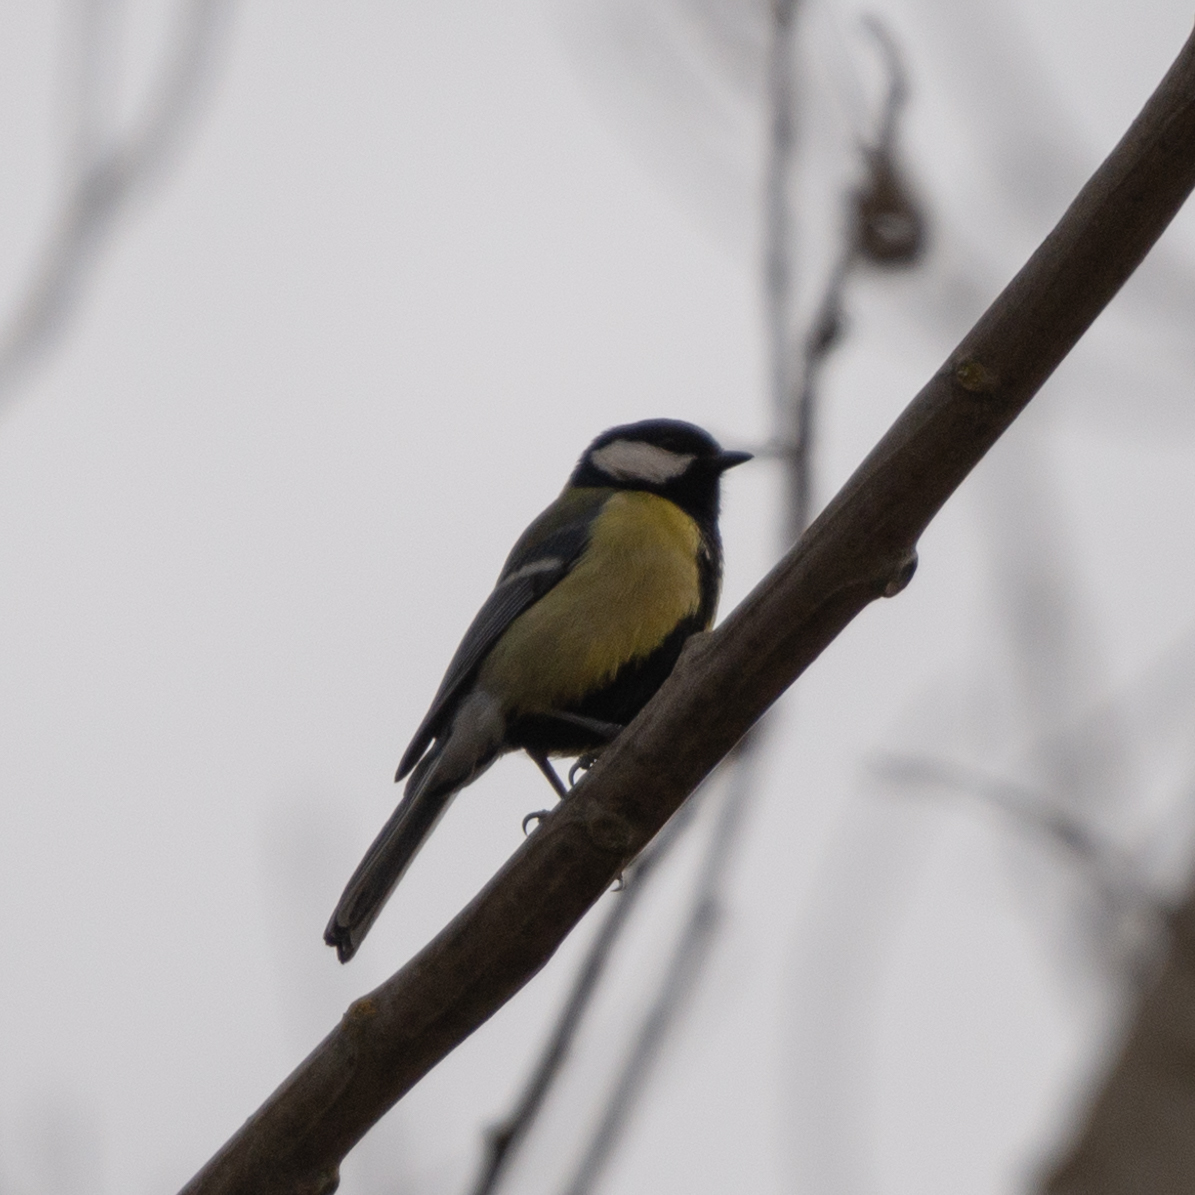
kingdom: Animalia
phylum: Chordata
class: Aves
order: Passeriformes
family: Paridae
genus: Parus
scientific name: Parus major
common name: Great tit
